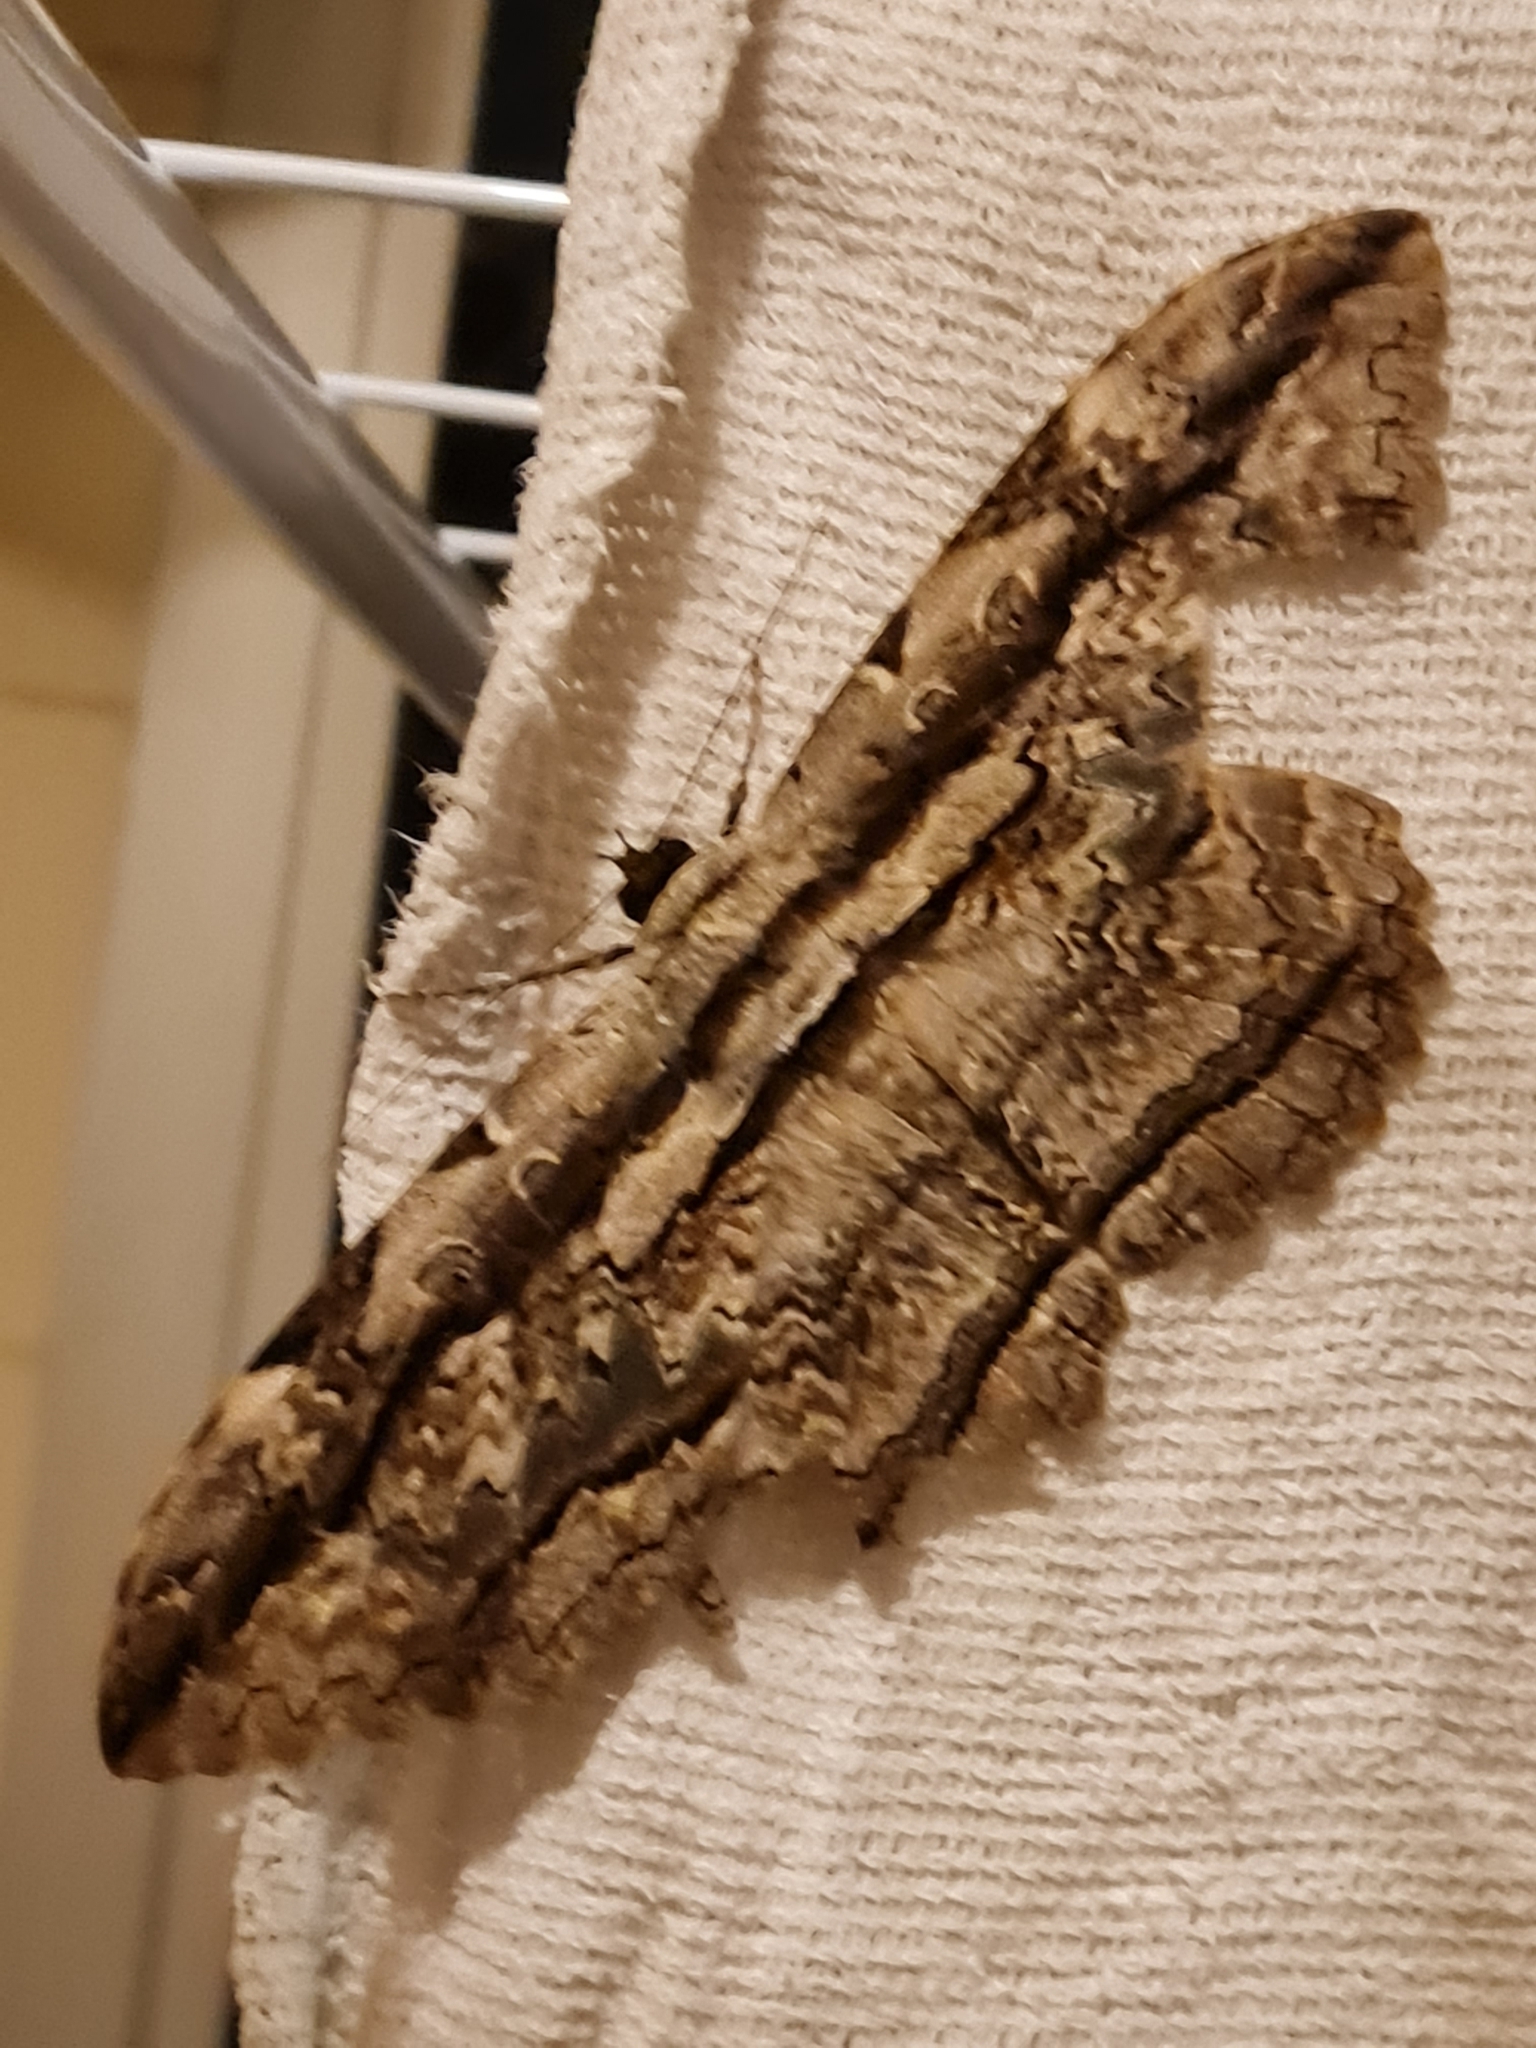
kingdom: Animalia
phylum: Arthropoda
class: Insecta
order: Lepidoptera
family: Erebidae
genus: Thysania
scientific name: Thysania zenobia
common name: Owl moth
